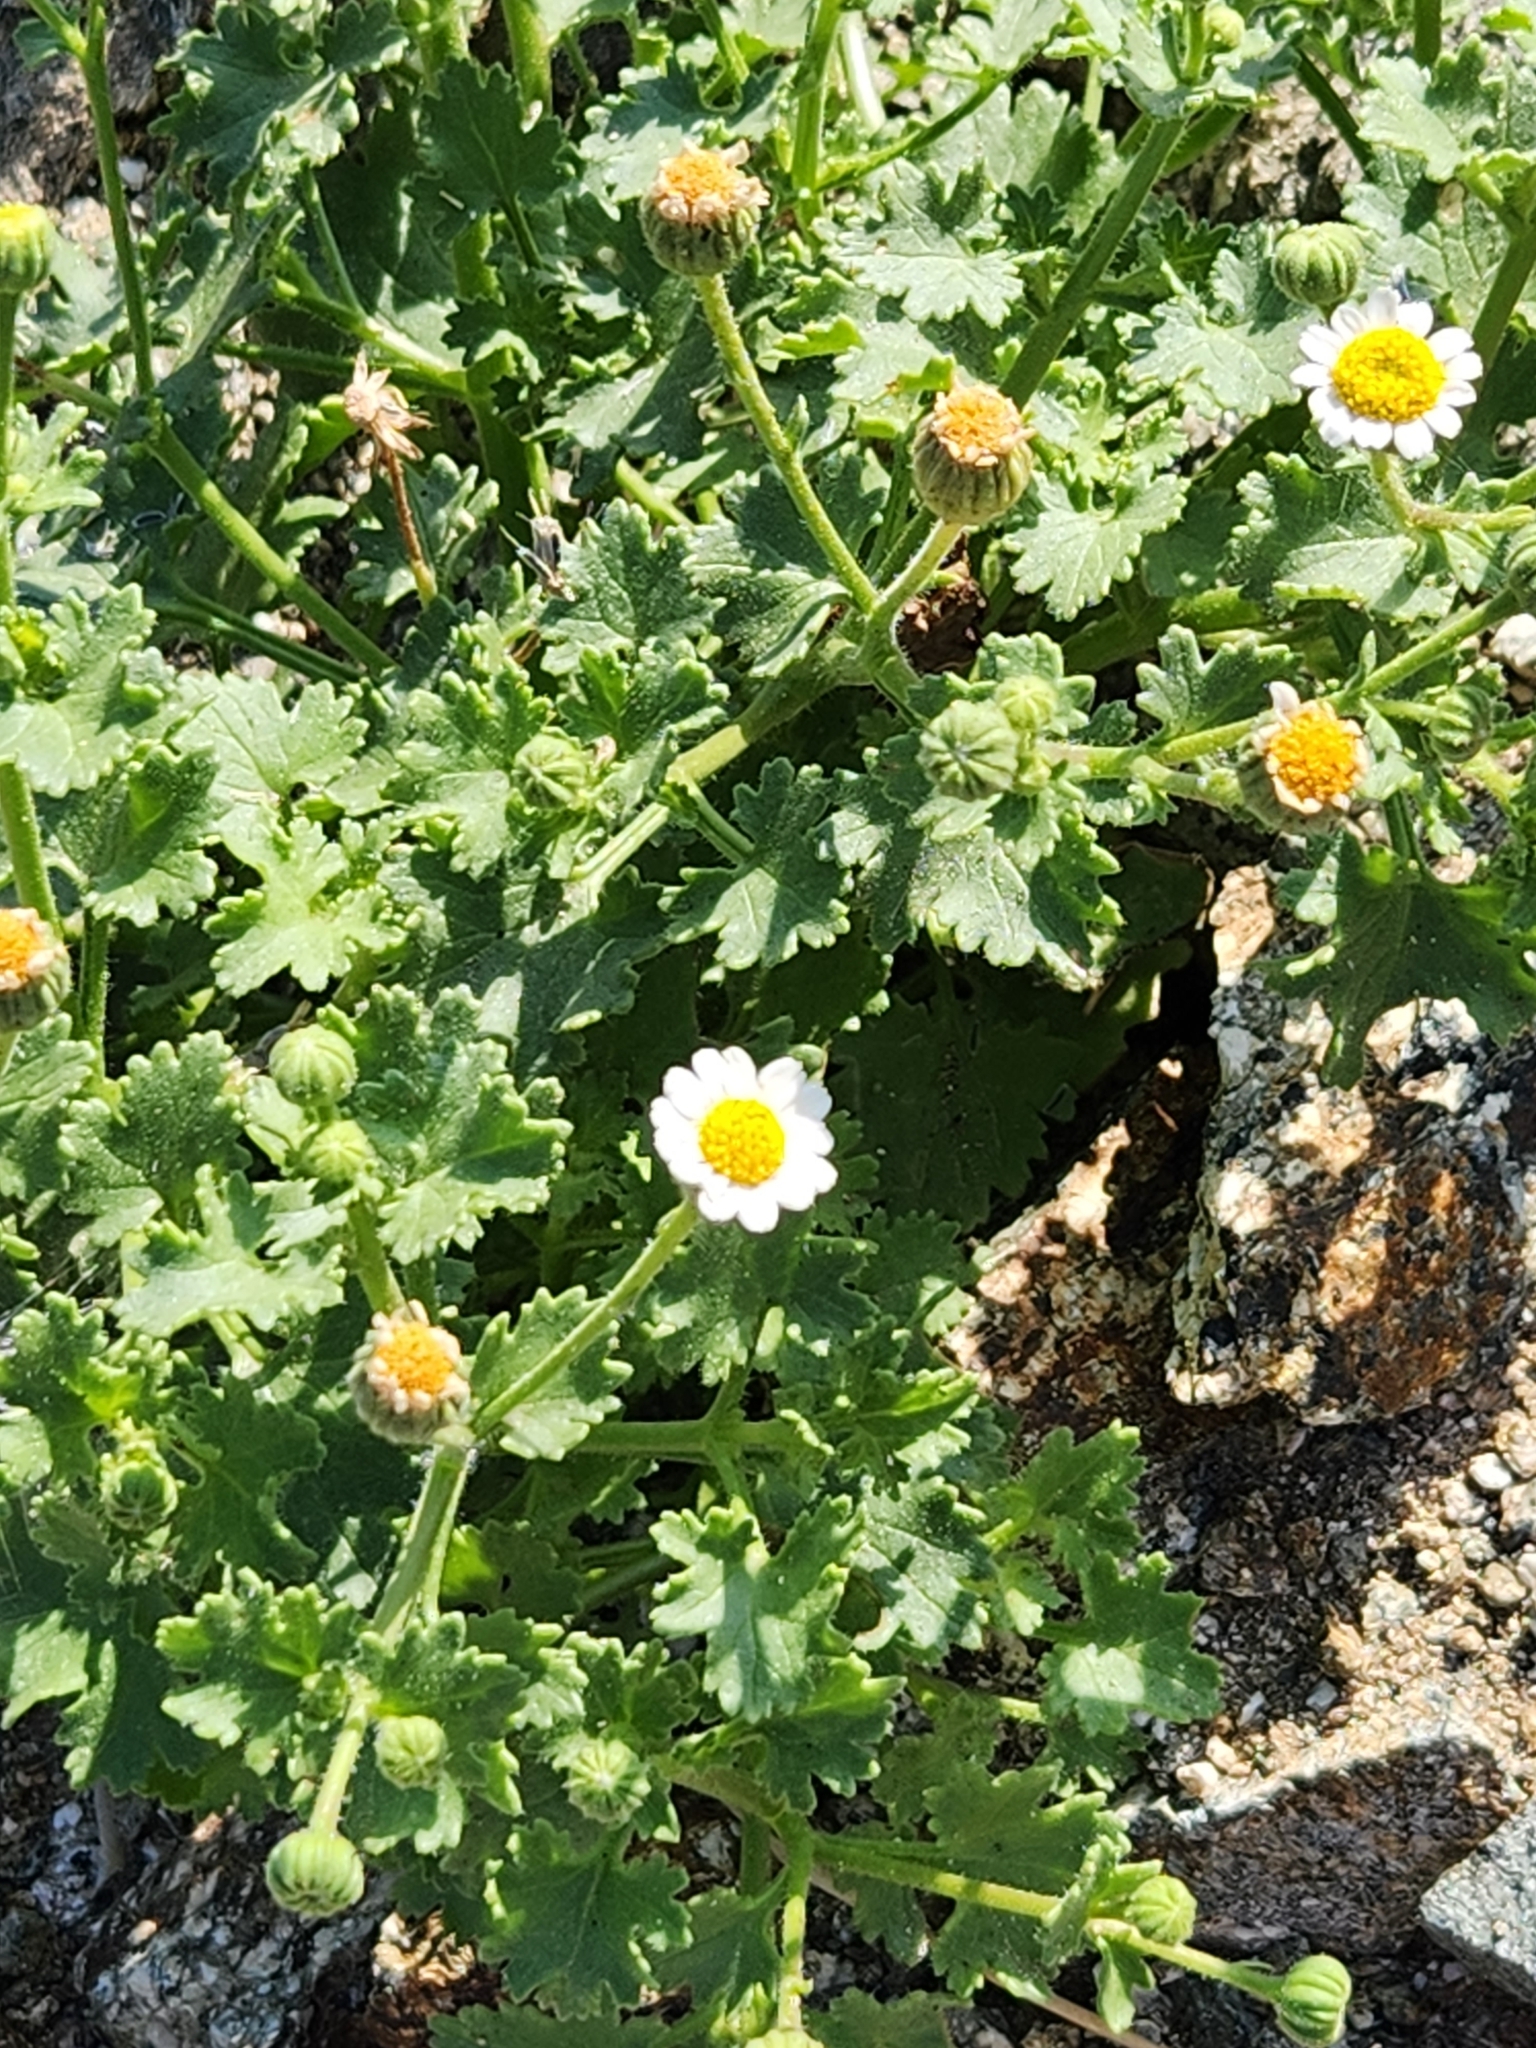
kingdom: Plantae
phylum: Tracheophyta
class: Magnoliopsida
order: Asterales
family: Asteraceae
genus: Laphamia
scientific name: Laphamia emoryi
